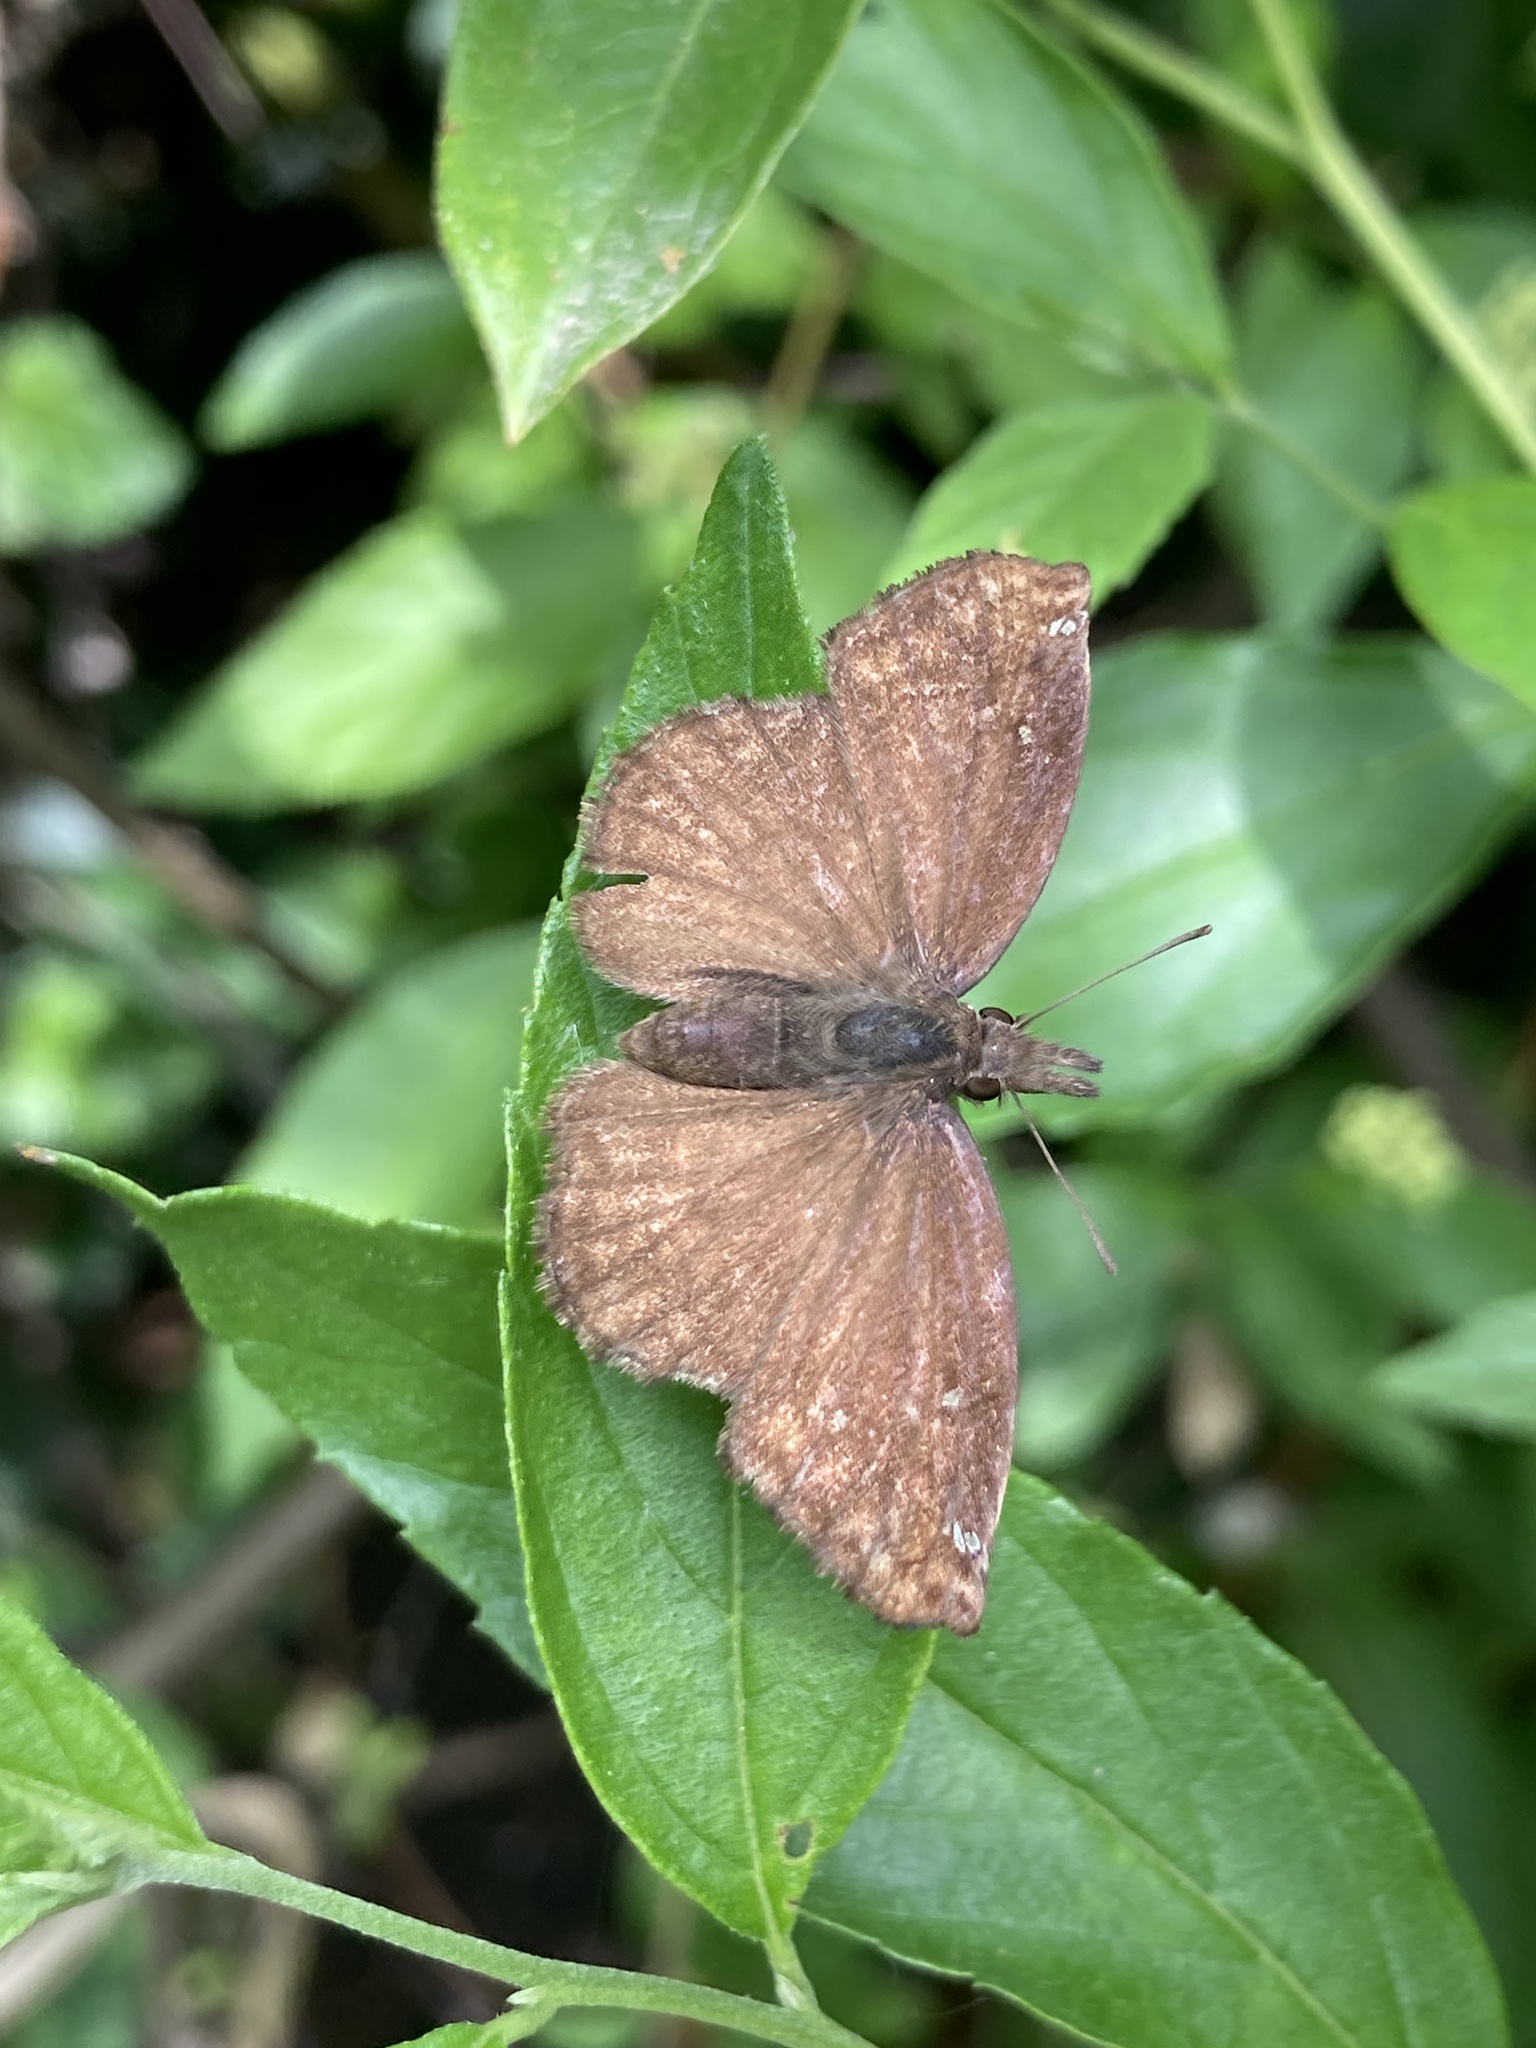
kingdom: Animalia
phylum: Arthropoda
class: Insecta
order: Lepidoptera
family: Hesperiidae
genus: Anisochoria
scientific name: Anisochoria sublimbata
